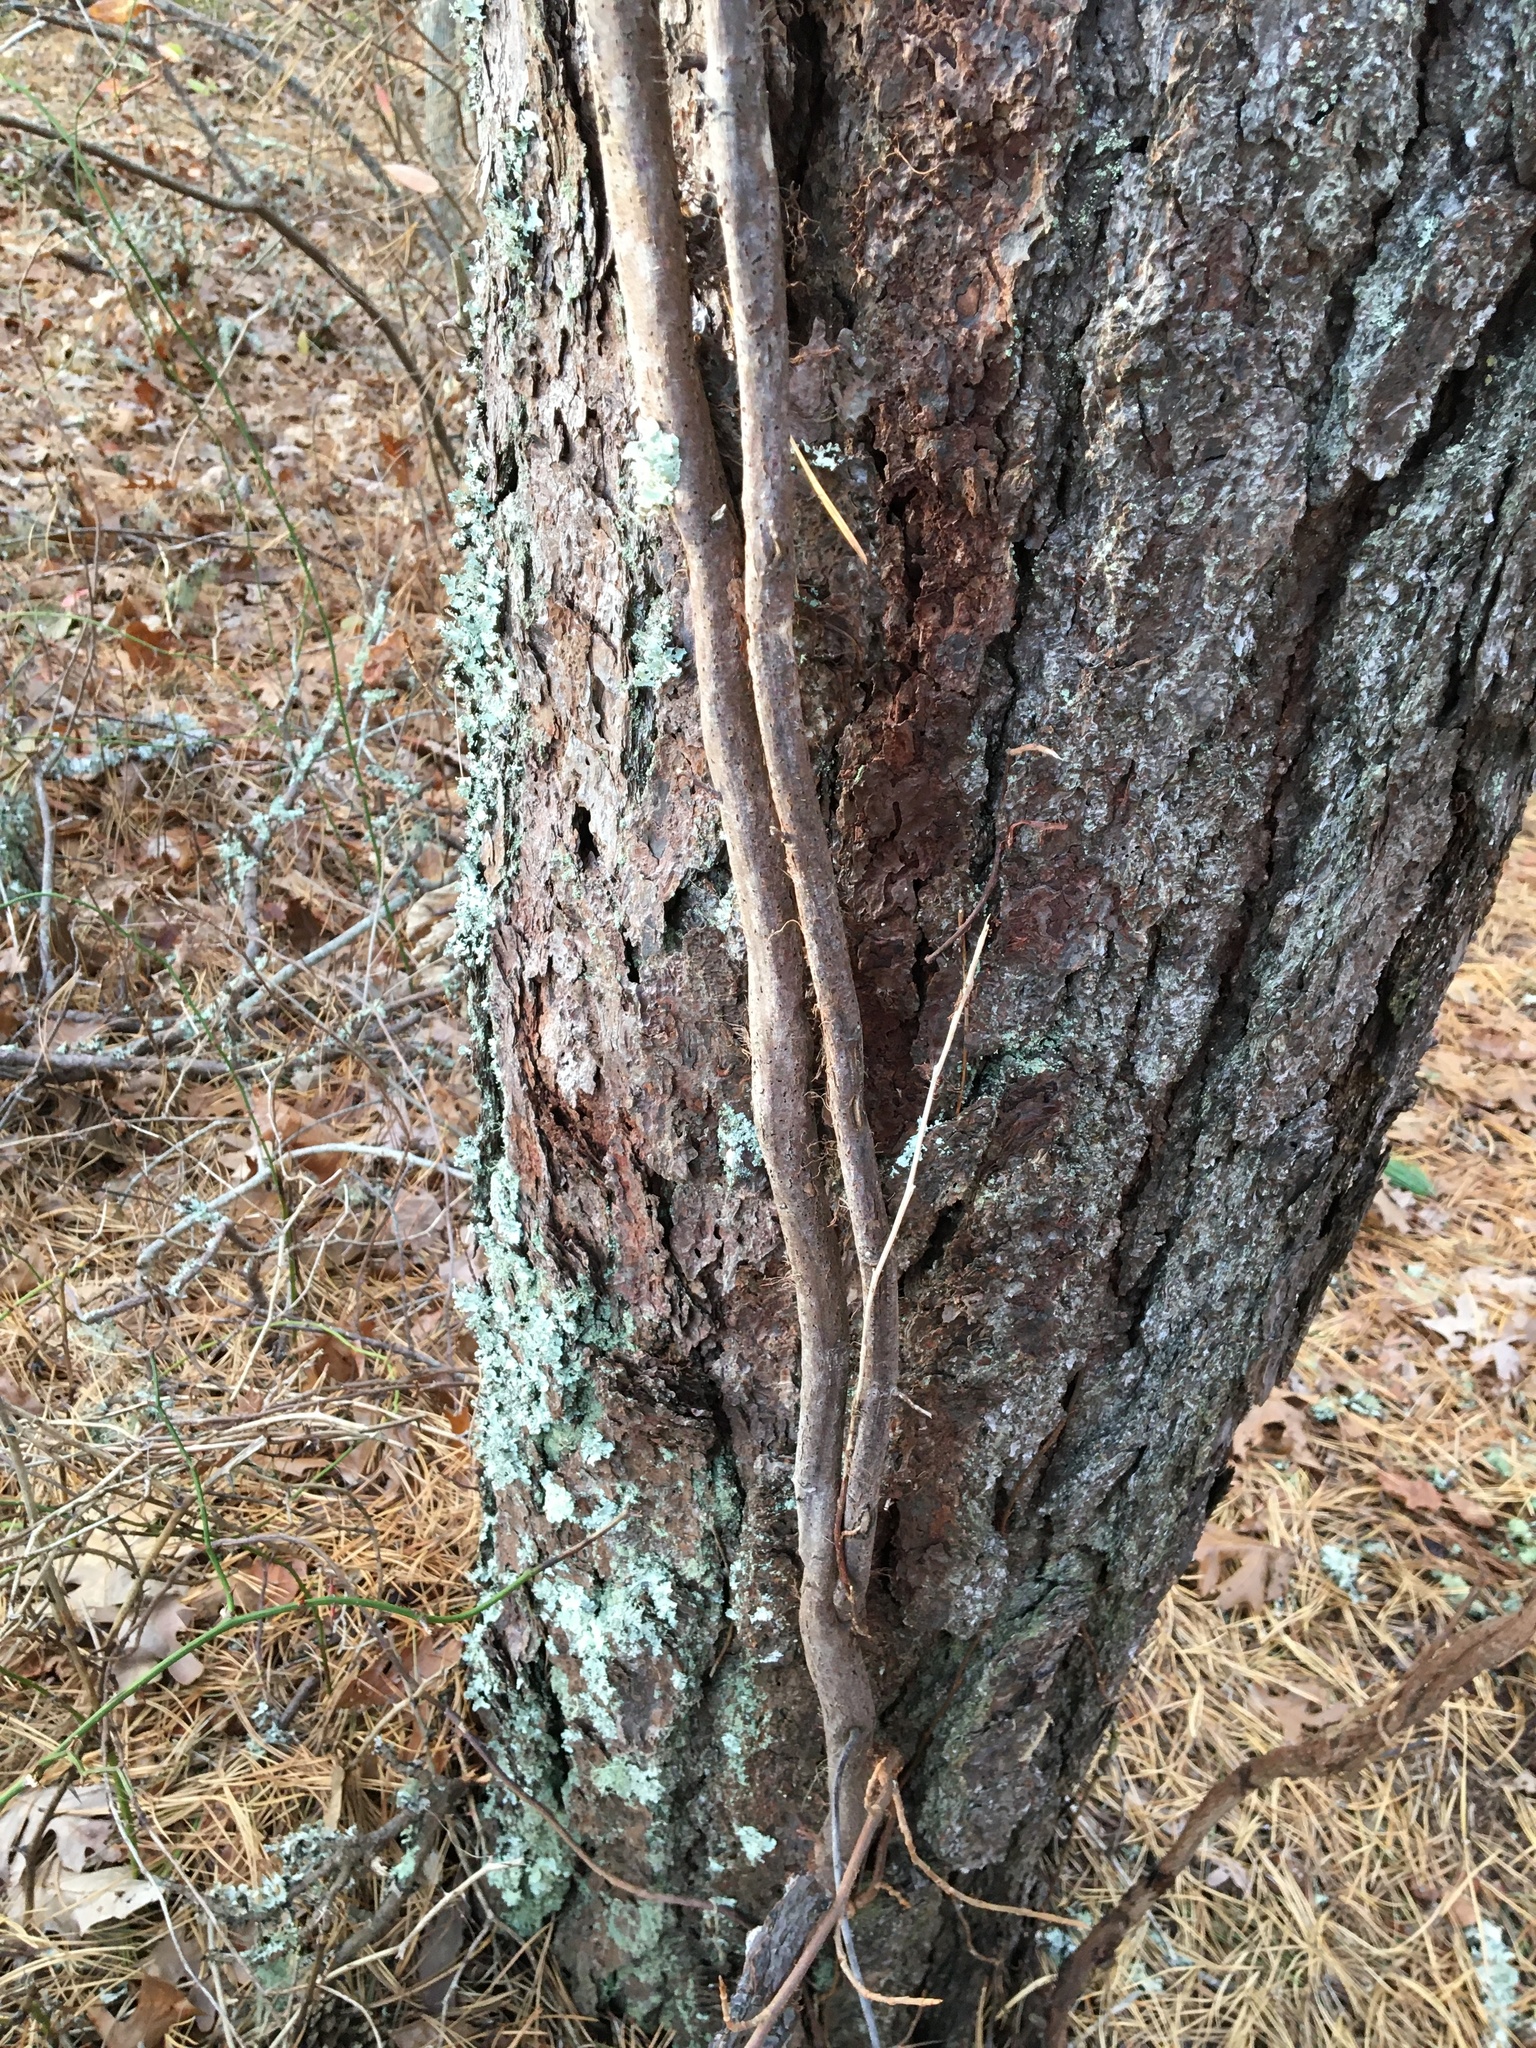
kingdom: Plantae
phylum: Tracheophyta
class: Magnoliopsida
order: Sapindales
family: Anacardiaceae
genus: Toxicodendron
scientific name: Toxicodendron radicans
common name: Poison ivy
